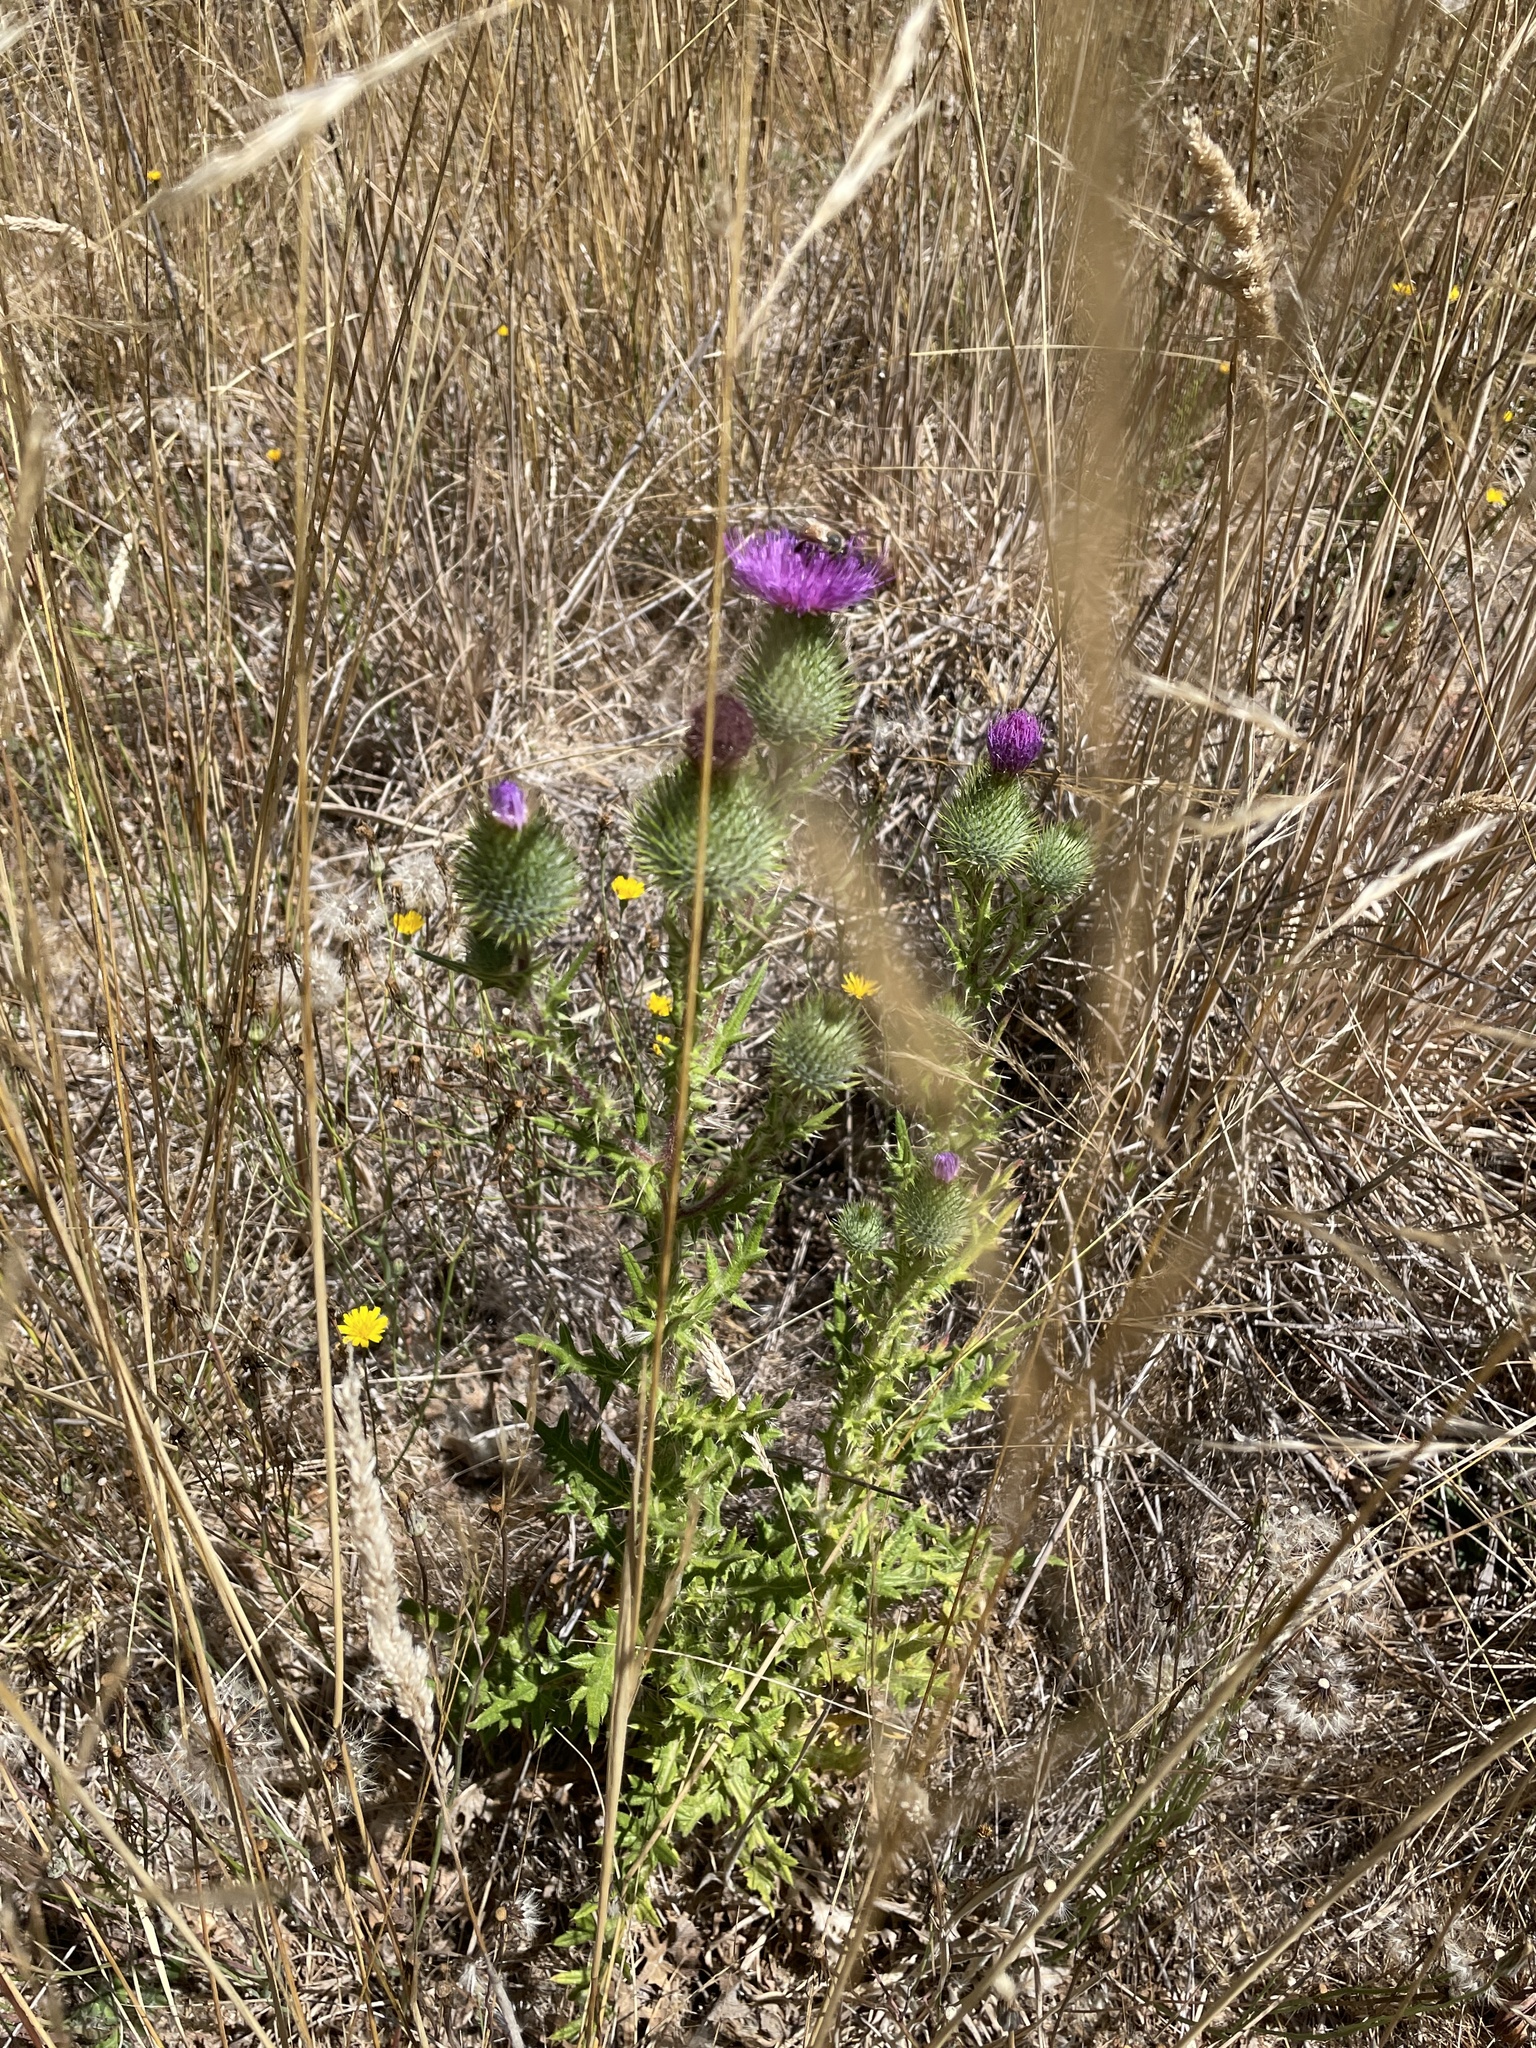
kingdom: Plantae
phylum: Tracheophyta
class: Magnoliopsida
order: Asterales
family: Asteraceae
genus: Cirsium
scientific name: Cirsium vulgare
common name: Bull thistle
